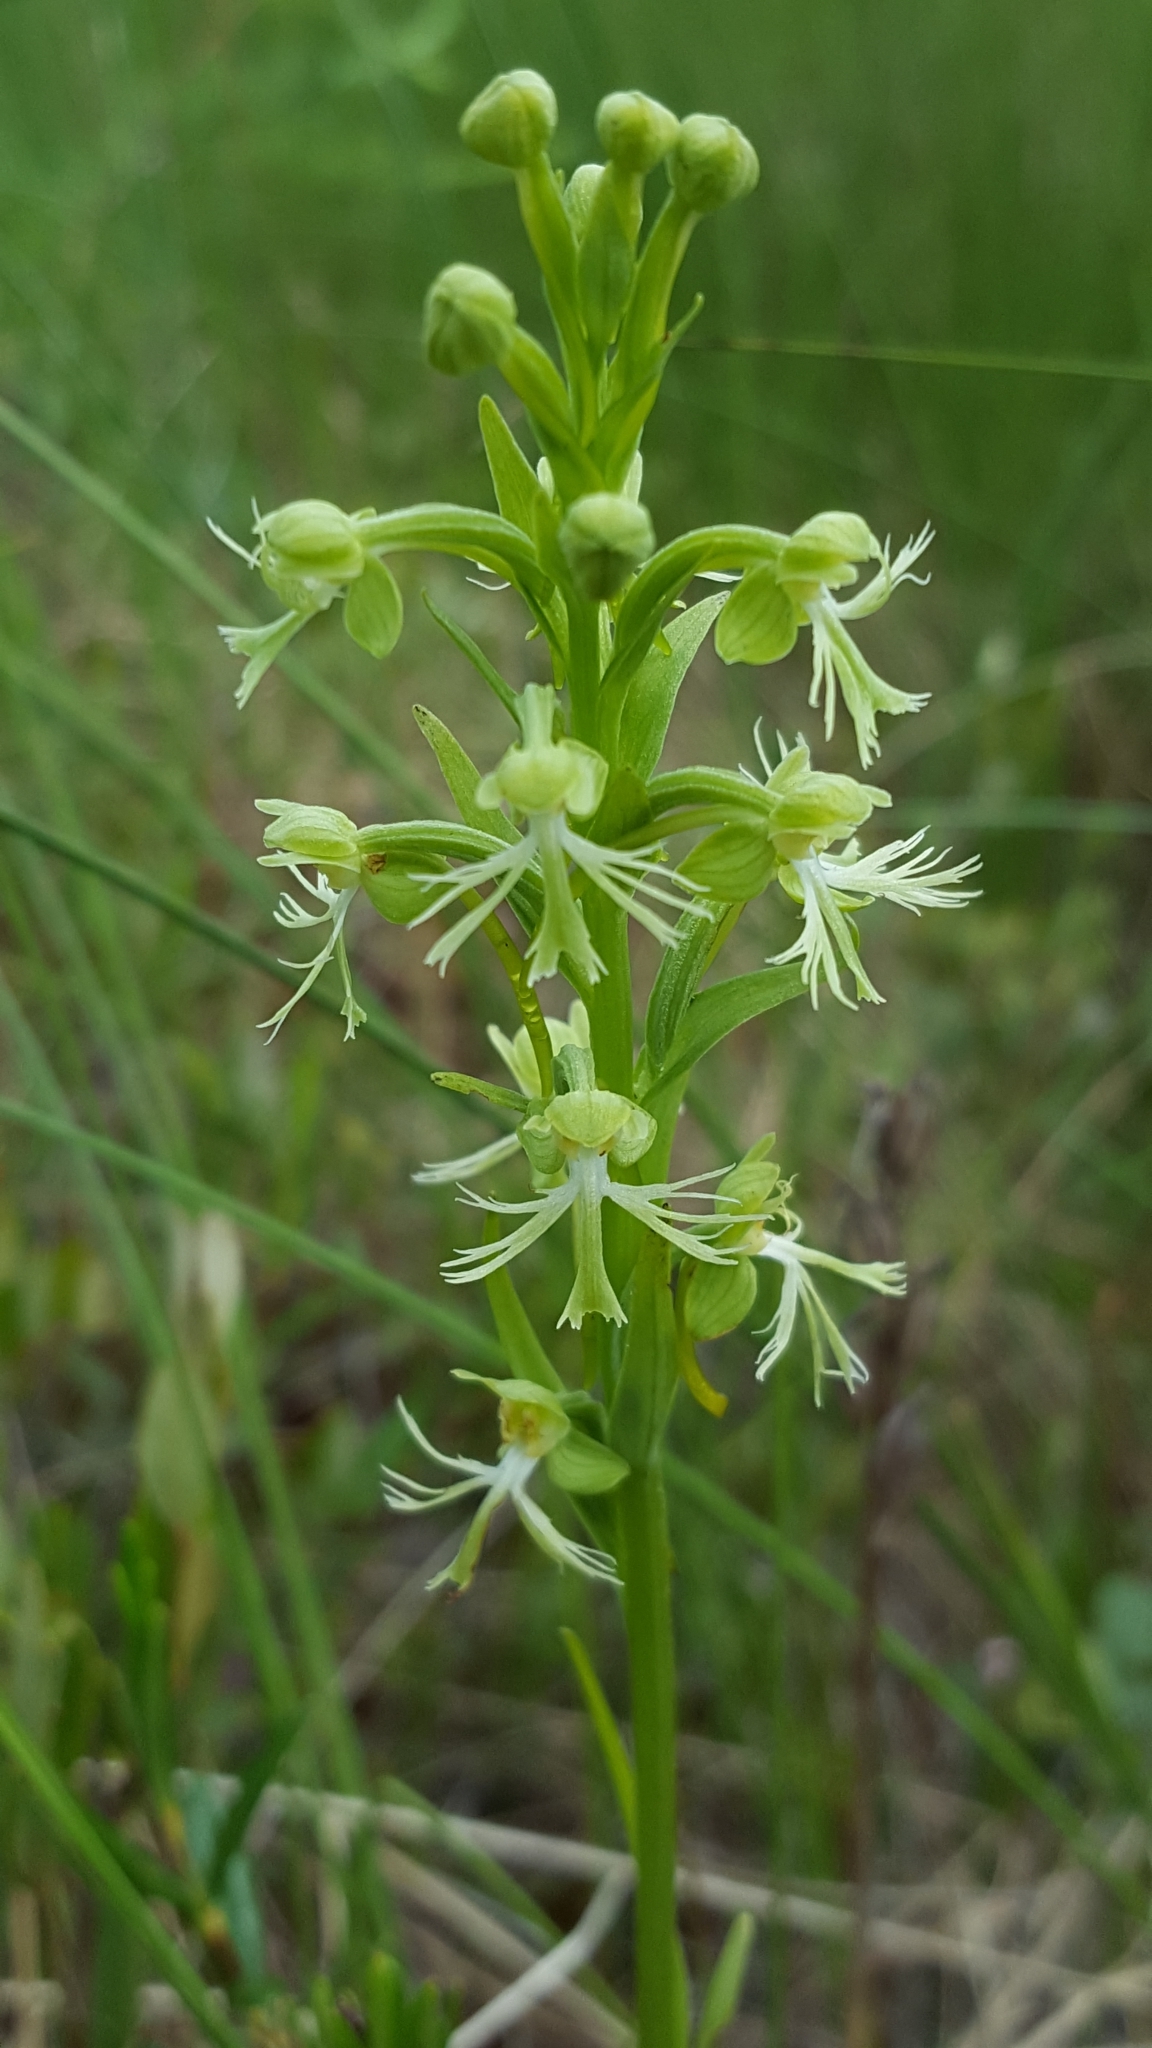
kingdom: Plantae
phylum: Tracheophyta
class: Liliopsida
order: Asparagales
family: Orchidaceae
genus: Platanthera
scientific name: Platanthera lacera
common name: Green fringed orchid
